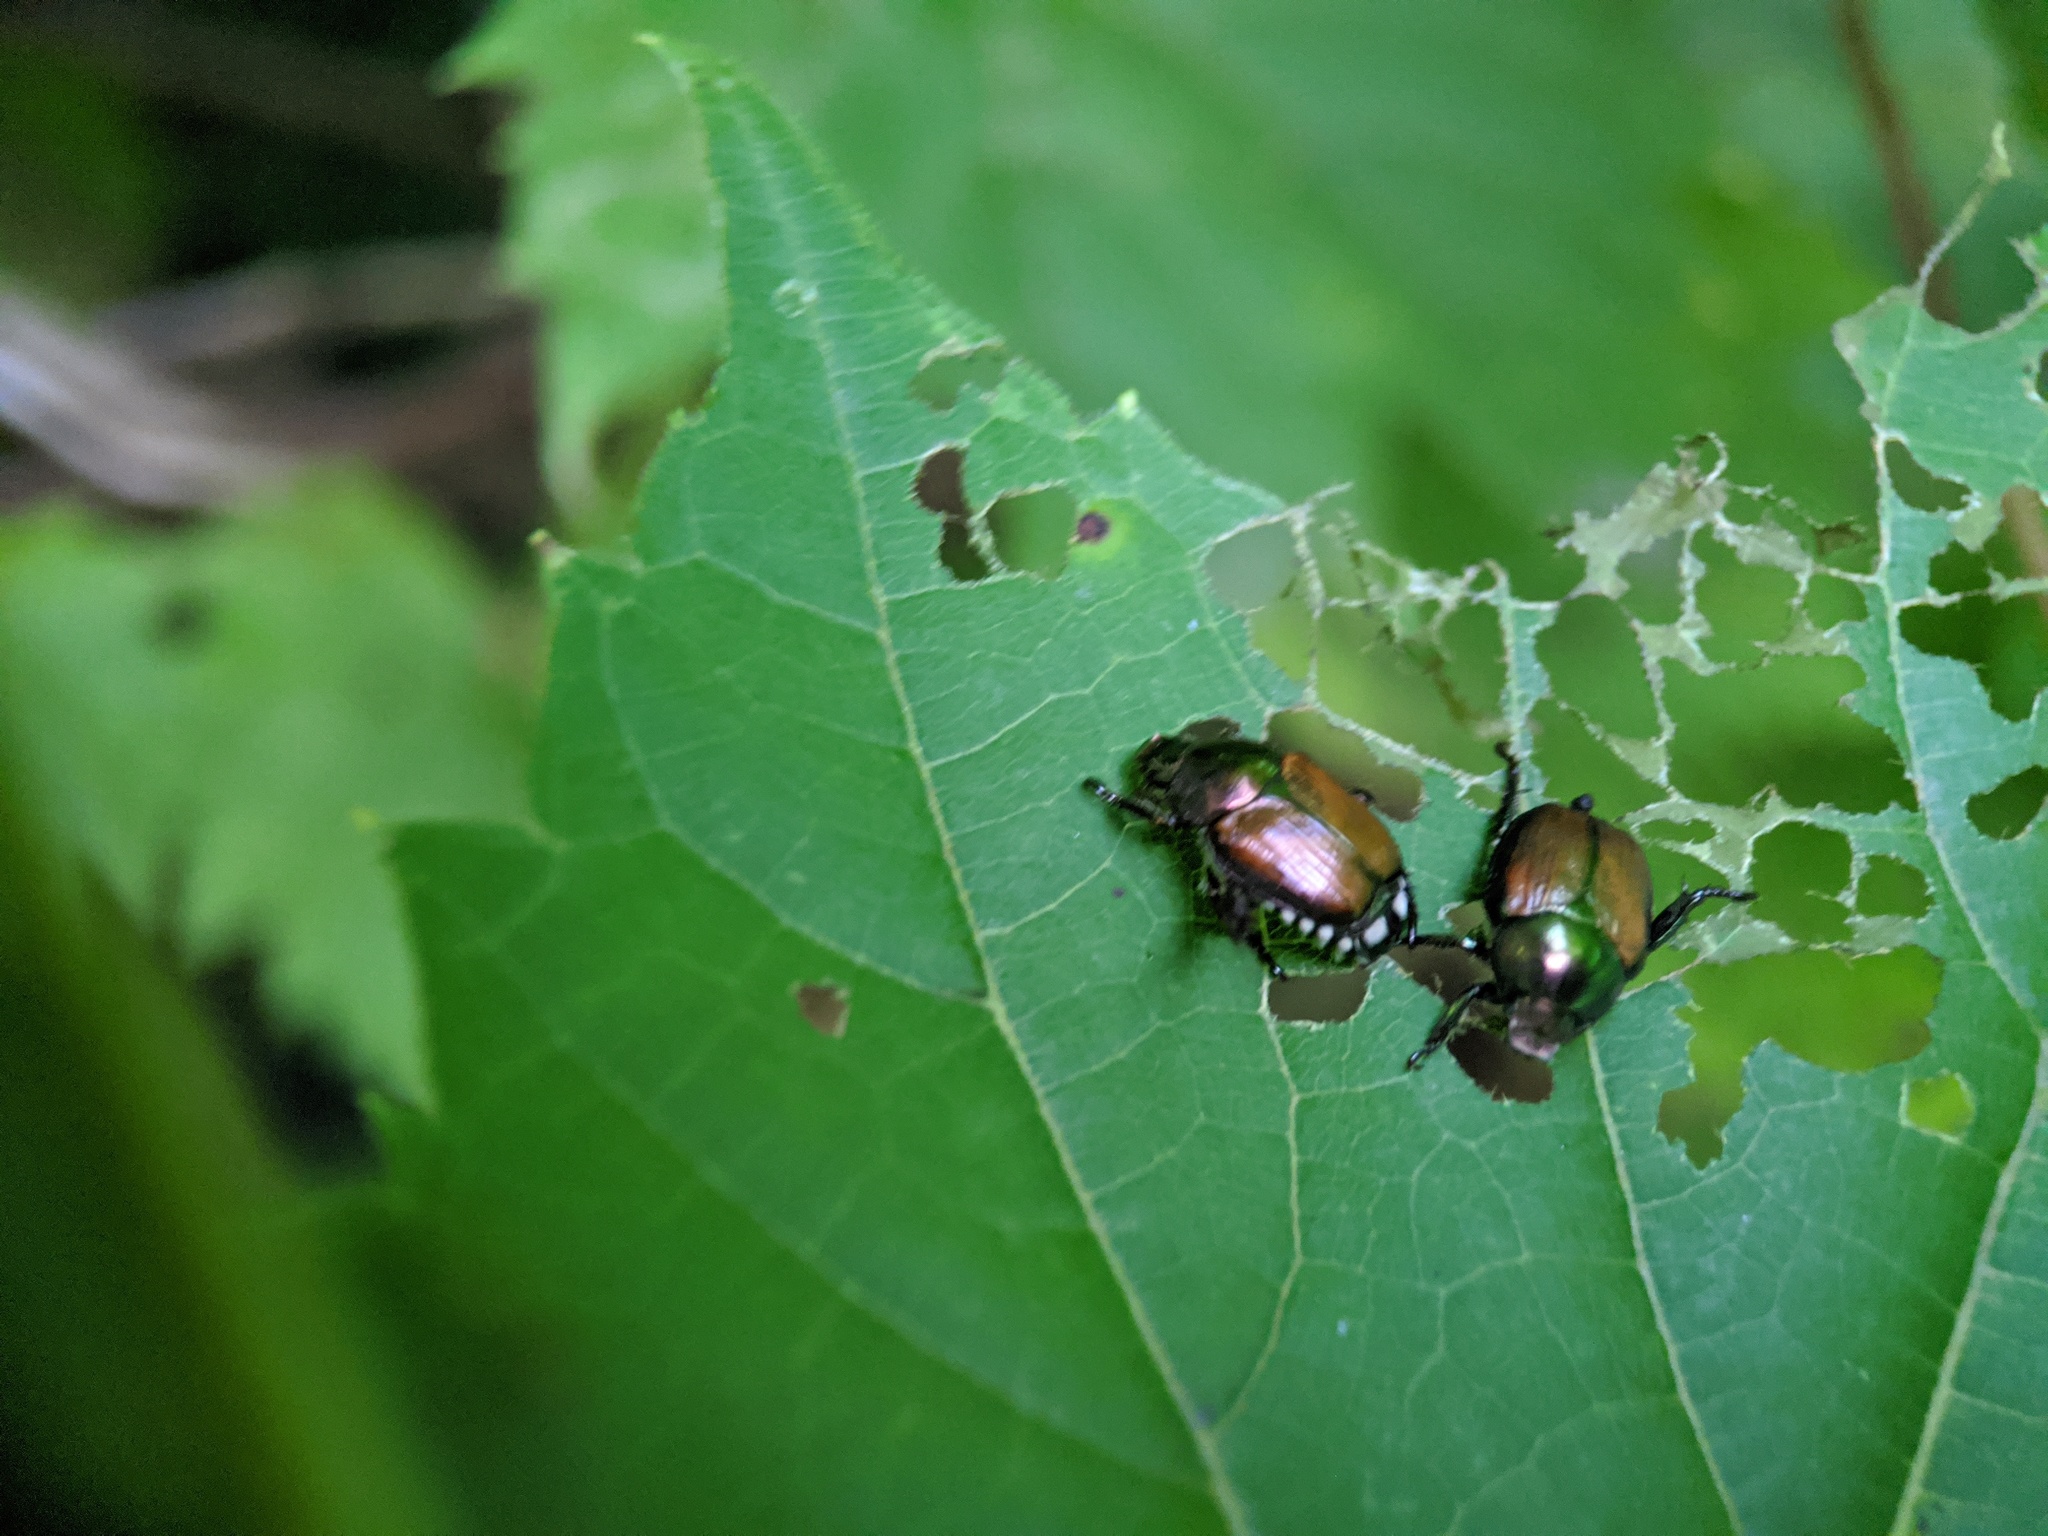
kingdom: Animalia
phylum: Arthropoda
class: Insecta
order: Coleoptera
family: Scarabaeidae
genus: Popillia
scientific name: Popillia japonica
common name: Japanese beetle
